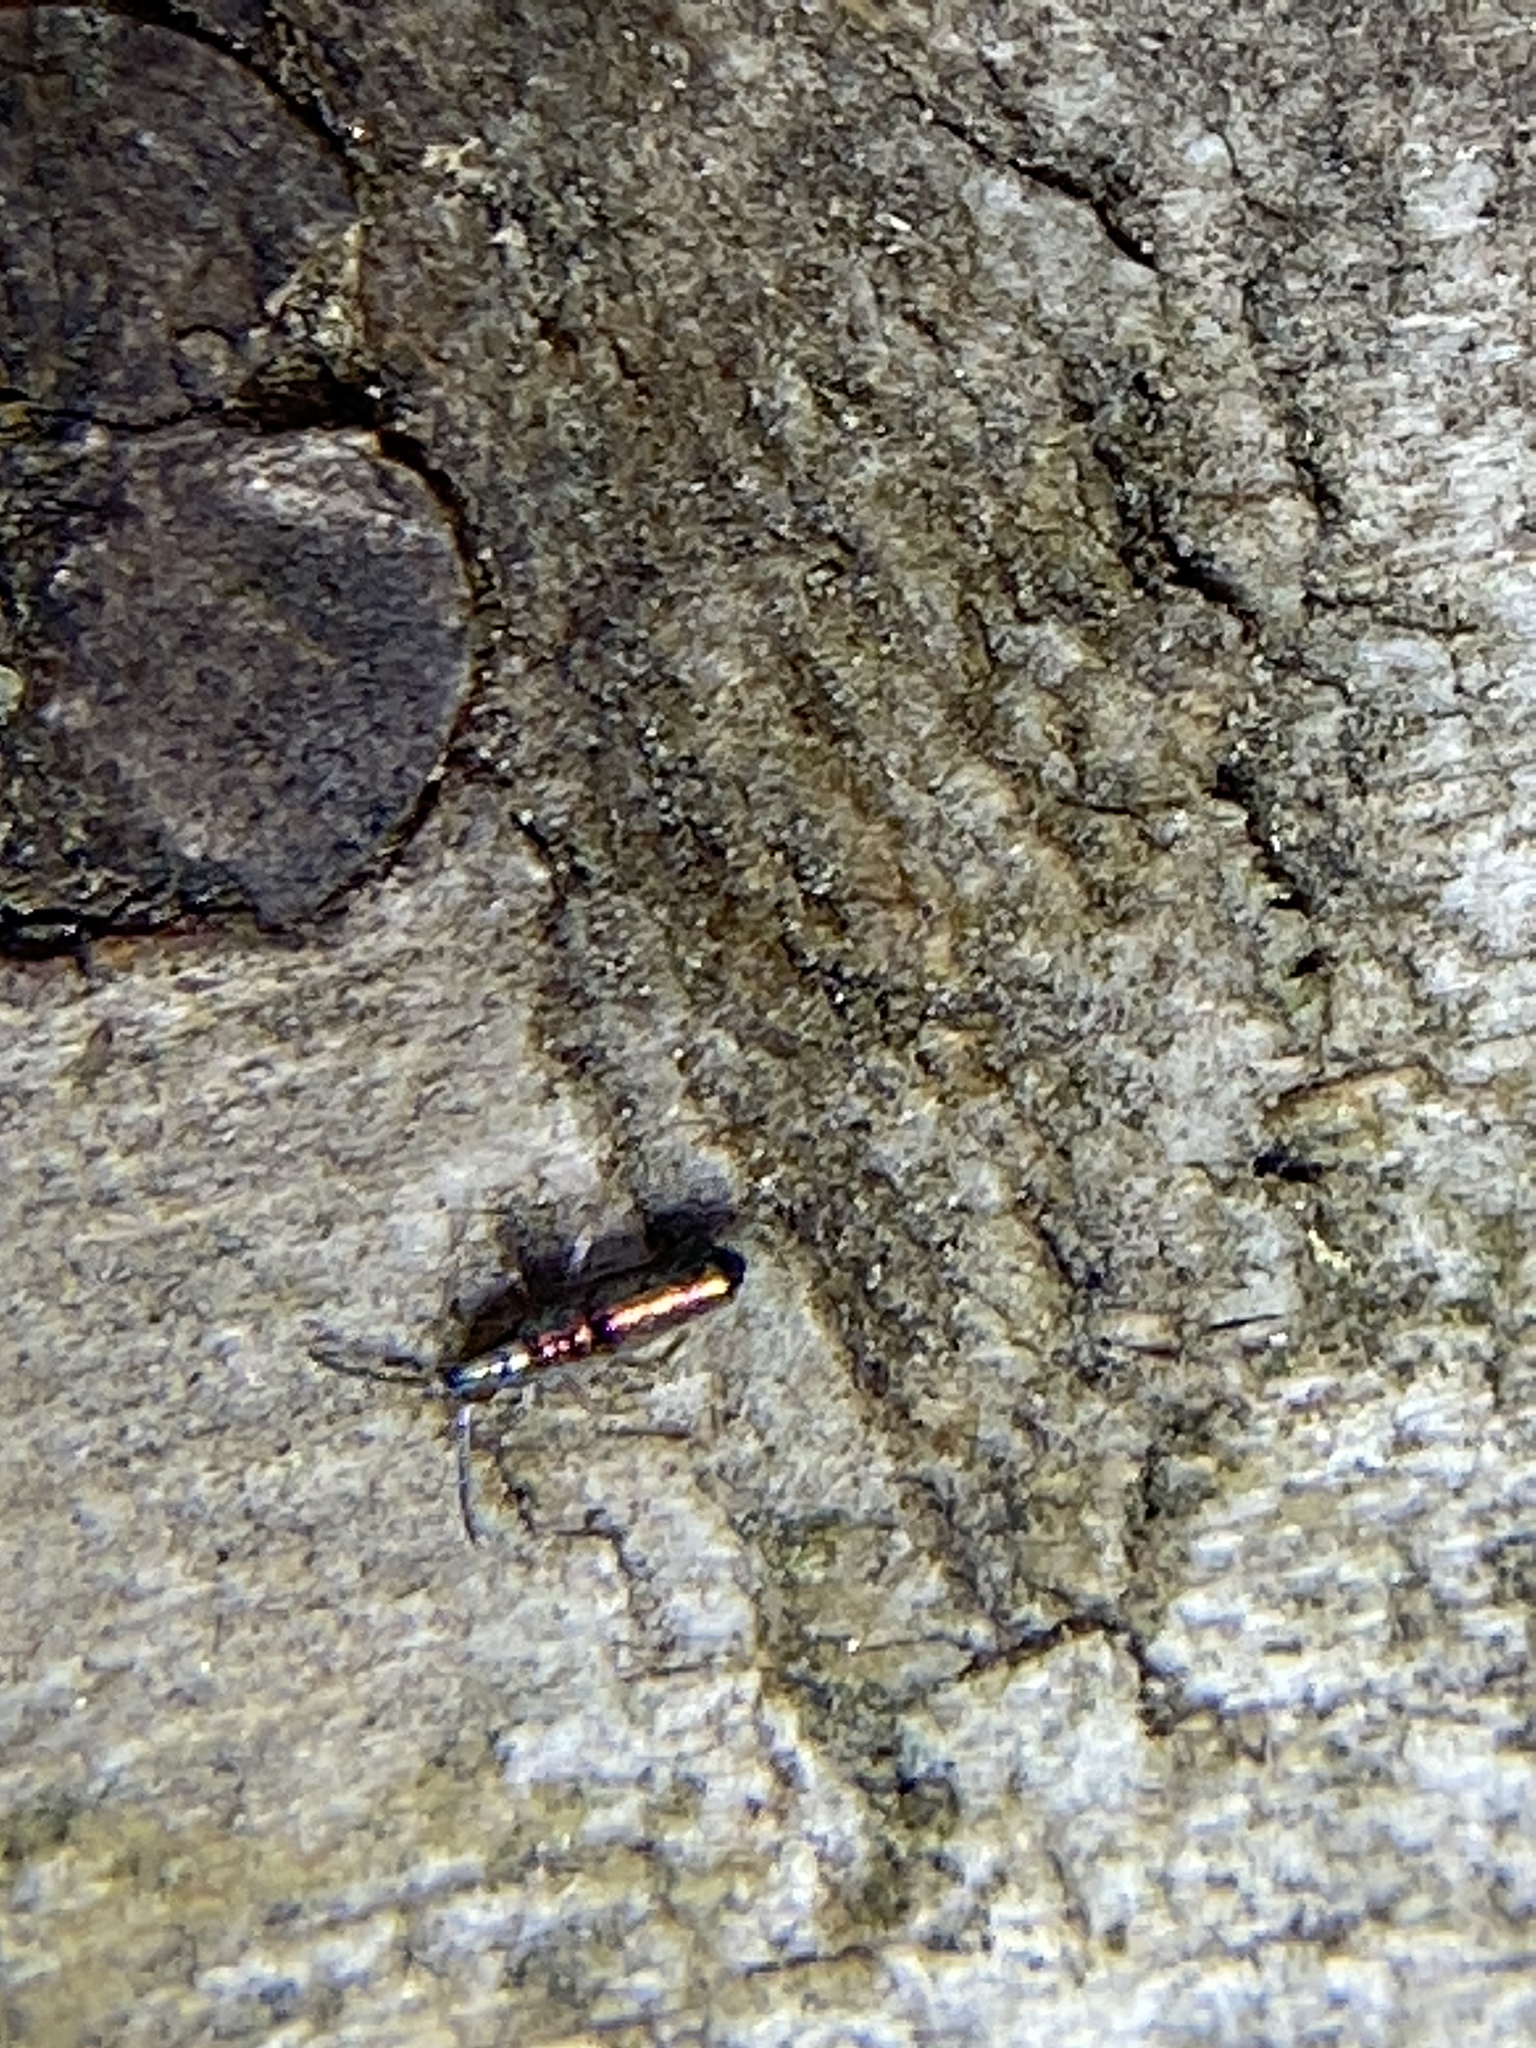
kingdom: Animalia
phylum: Arthropoda
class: Collembola
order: Entomobryomorpha
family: Entomobryidae
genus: Lepidocyrtus
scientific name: Lepidocyrtus paradoxus
